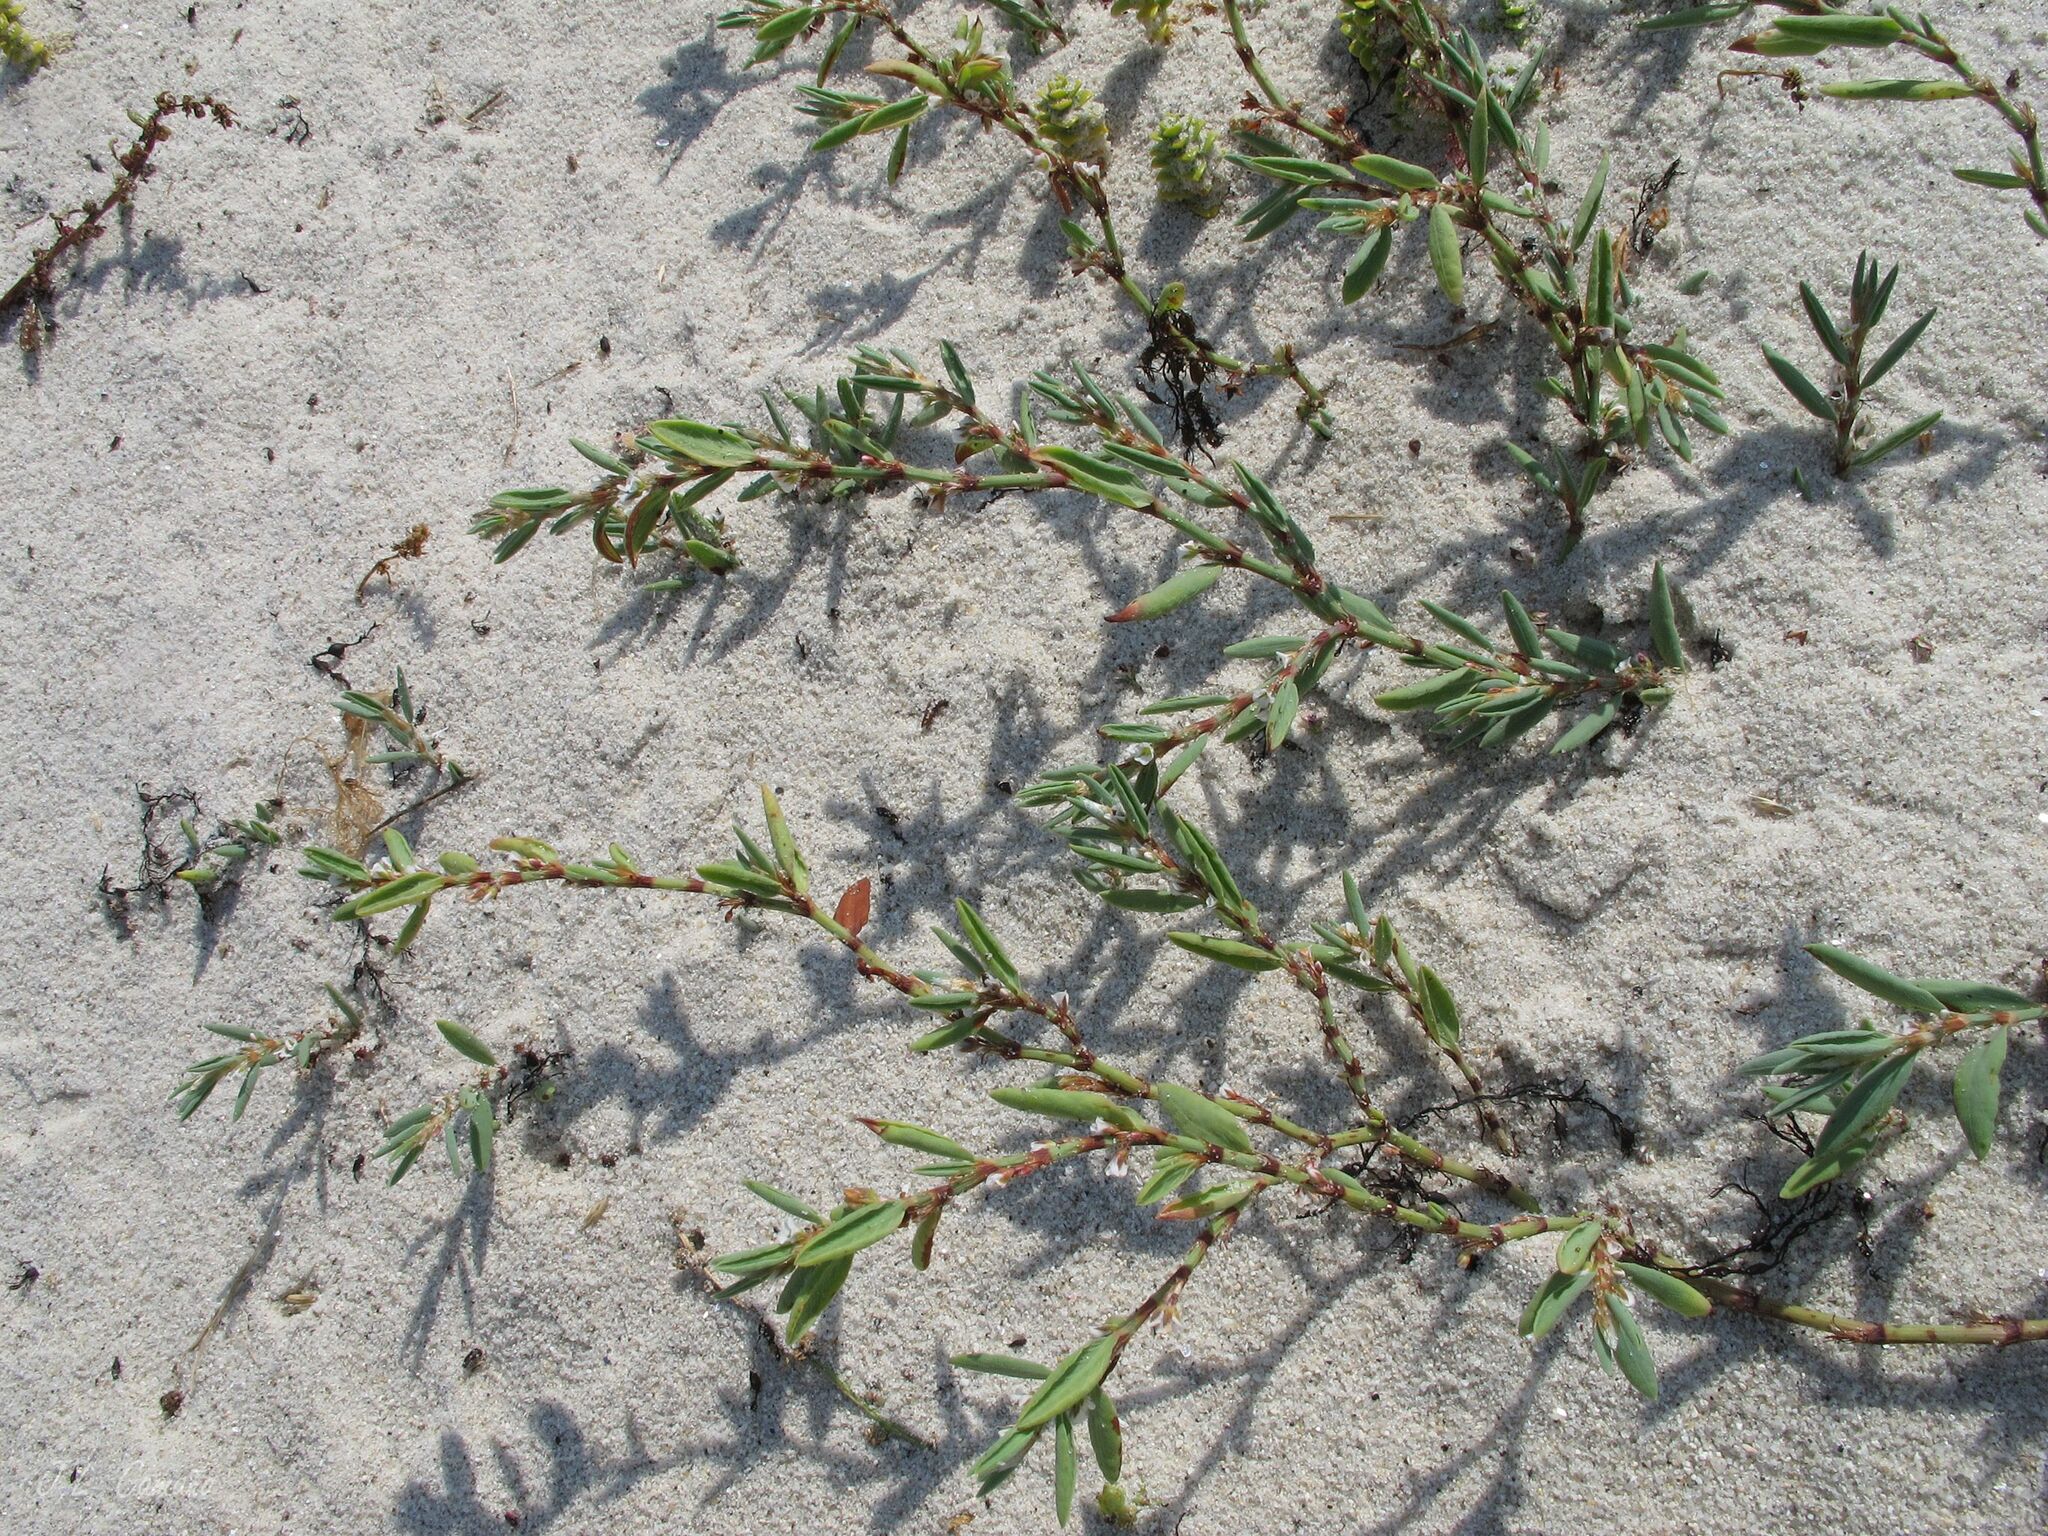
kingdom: Plantae
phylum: Tracheophyta
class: Magnoliopsida
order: Caryophyllales
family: Polygonaceae
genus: Polygonum
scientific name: Polygonum maritimum
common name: Sea knotgrass
